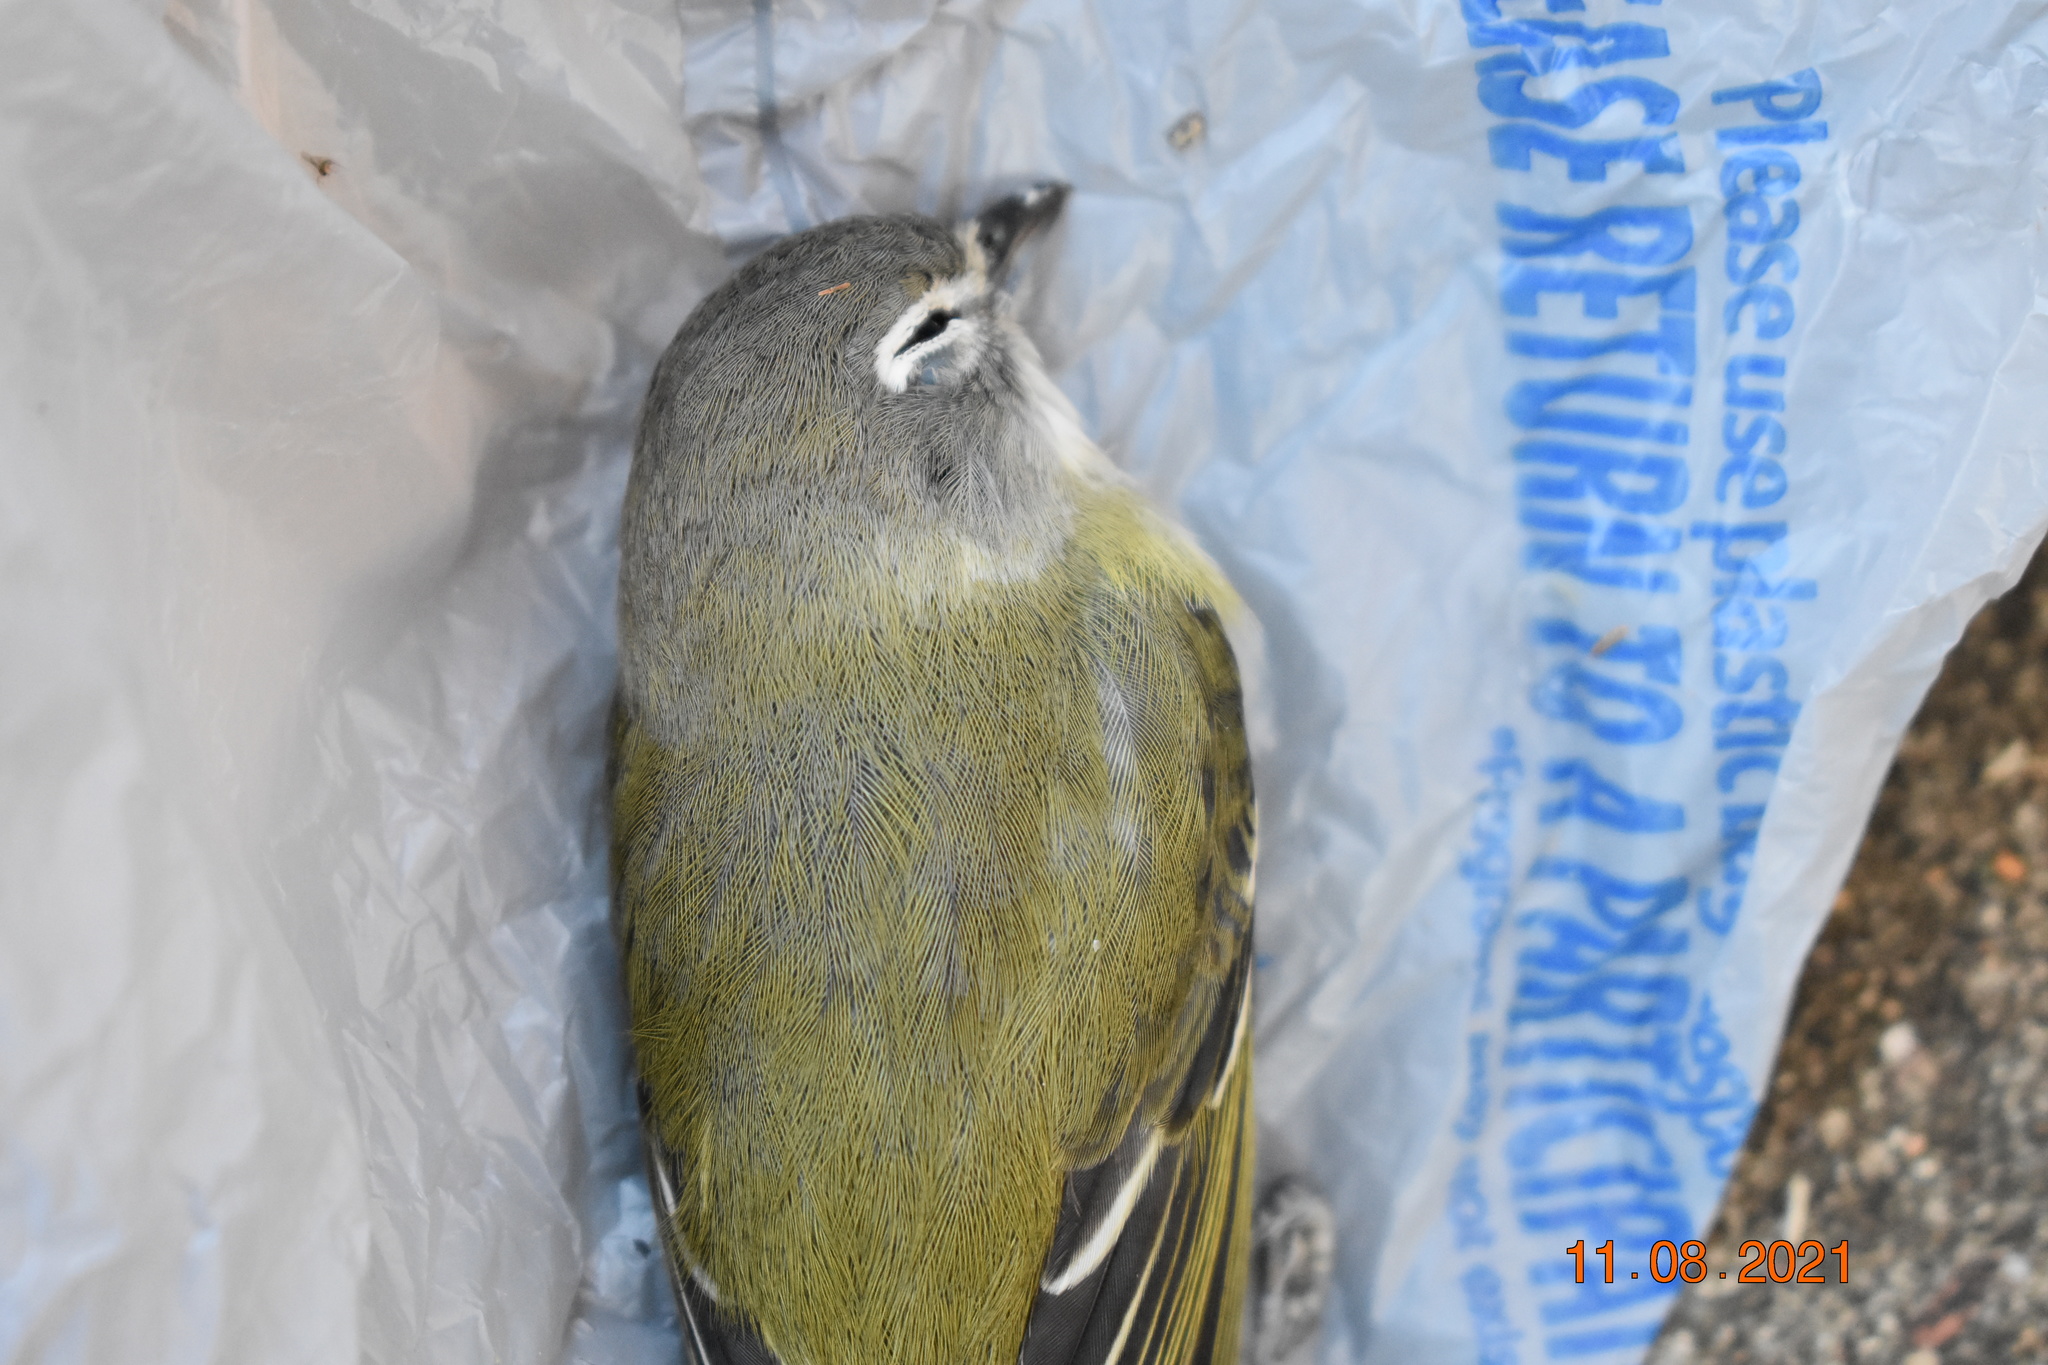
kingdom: Animalia
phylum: Chordata
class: Aves
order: Passeriformes
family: Vireonidae
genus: Vireo
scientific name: Vireo solitarius
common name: Blue-headed vireo
